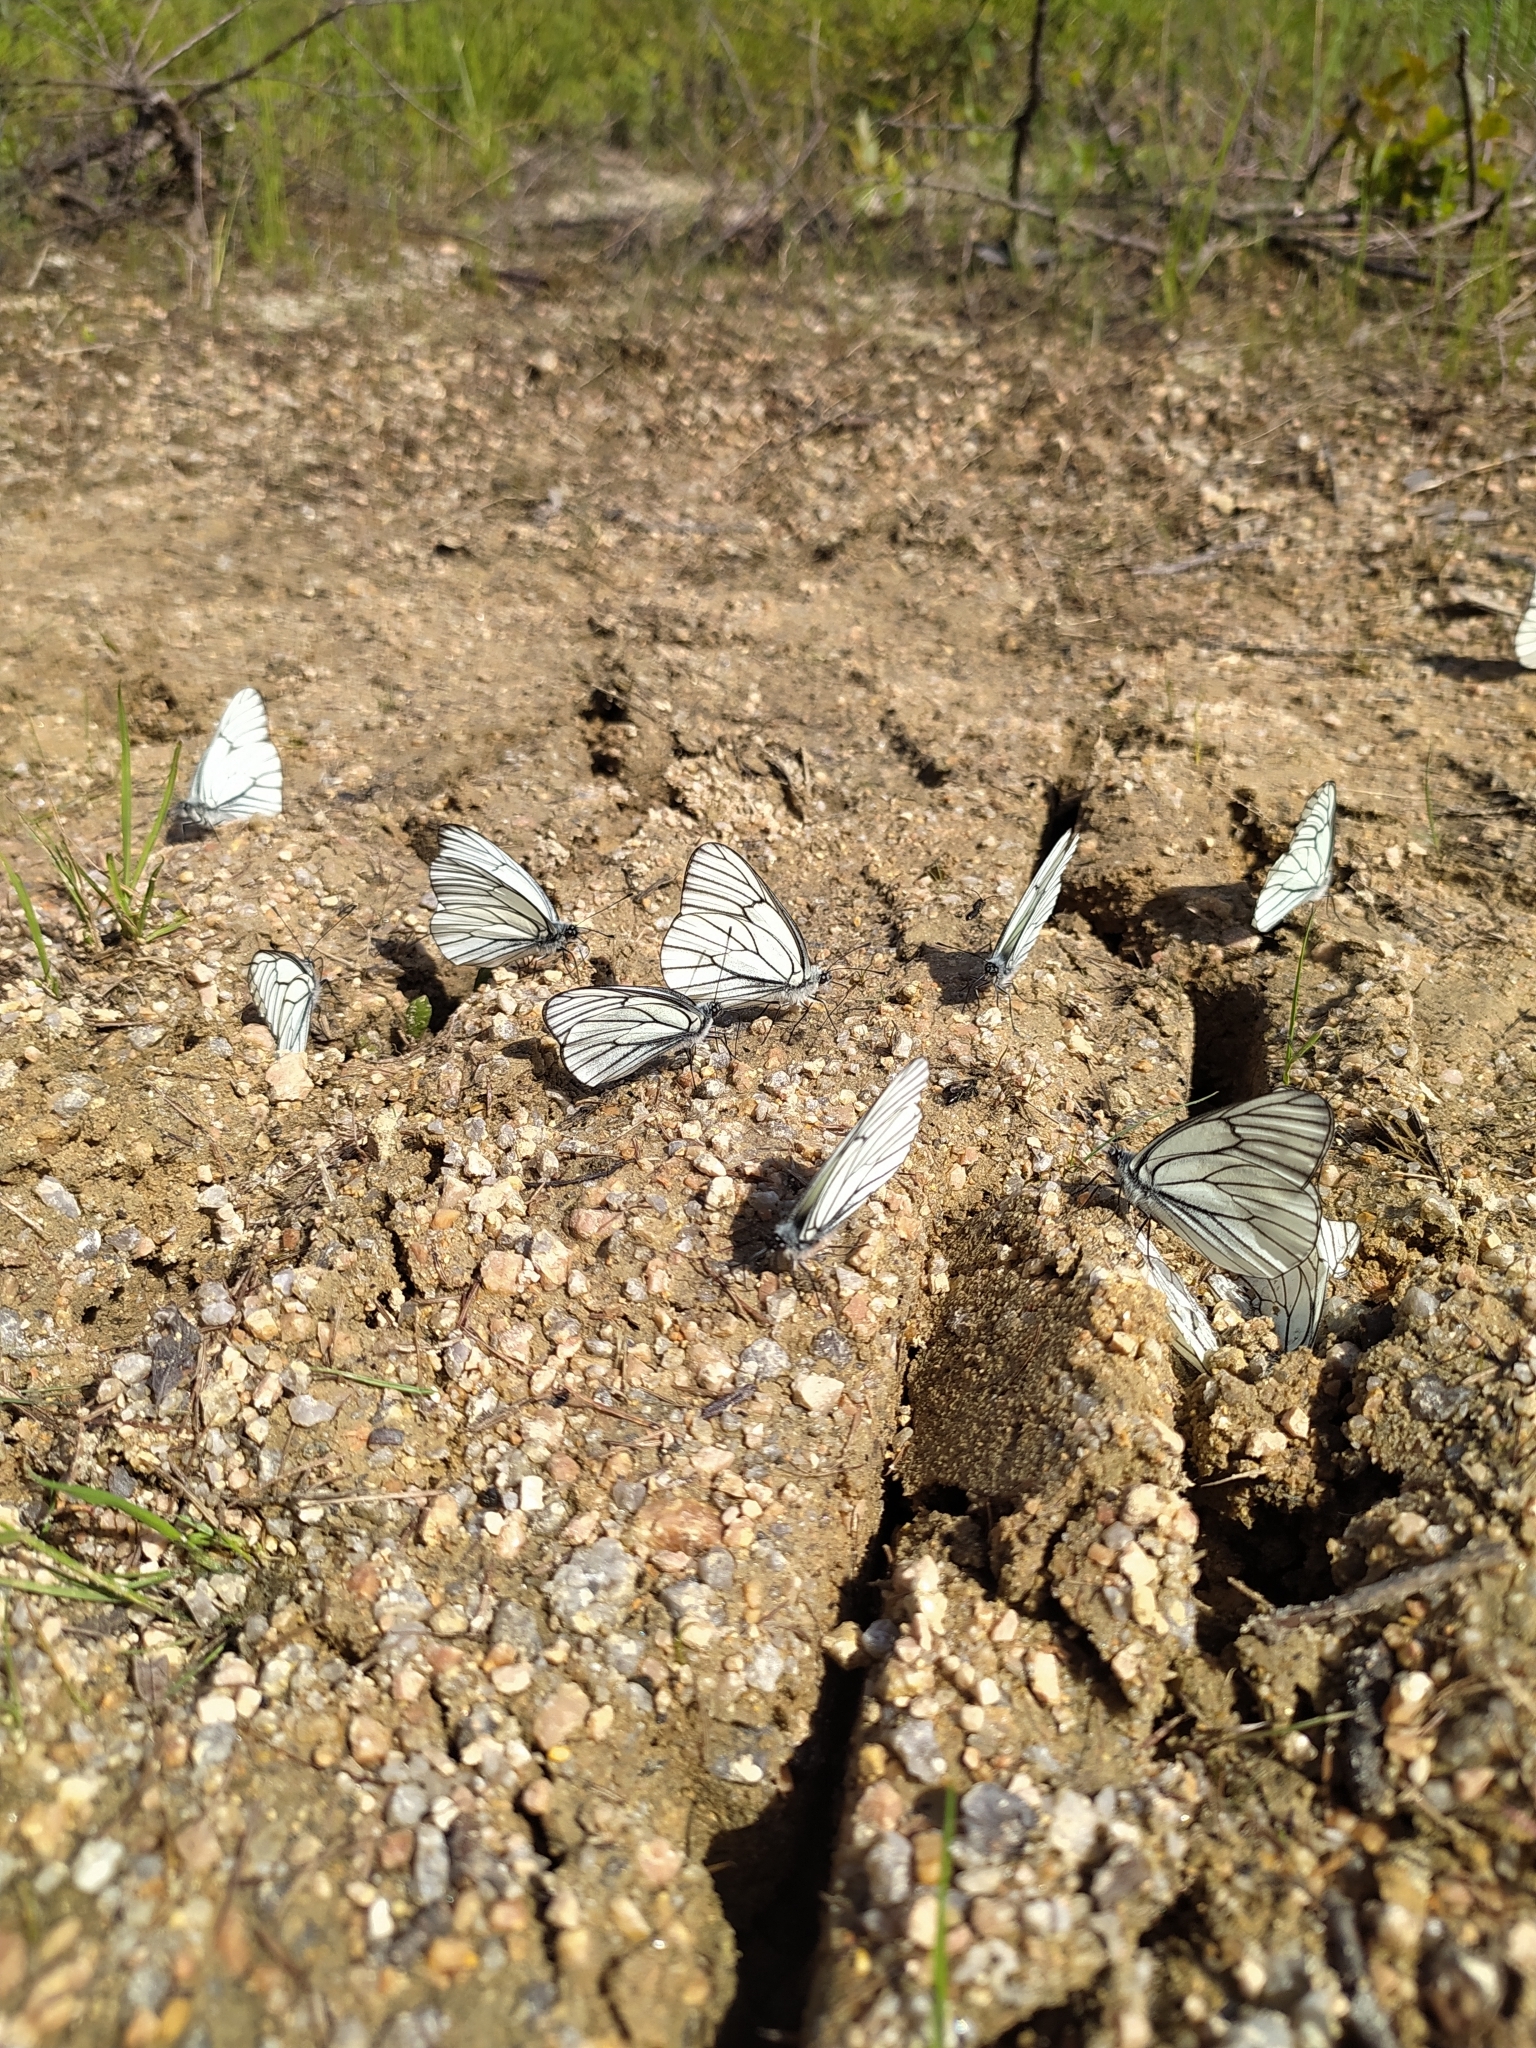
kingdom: Animalia
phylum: Arthropoda
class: Insecta
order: Lepidoptera
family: Pieridae
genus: Aporia
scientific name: Aporia crataegi
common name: Black-veined white
